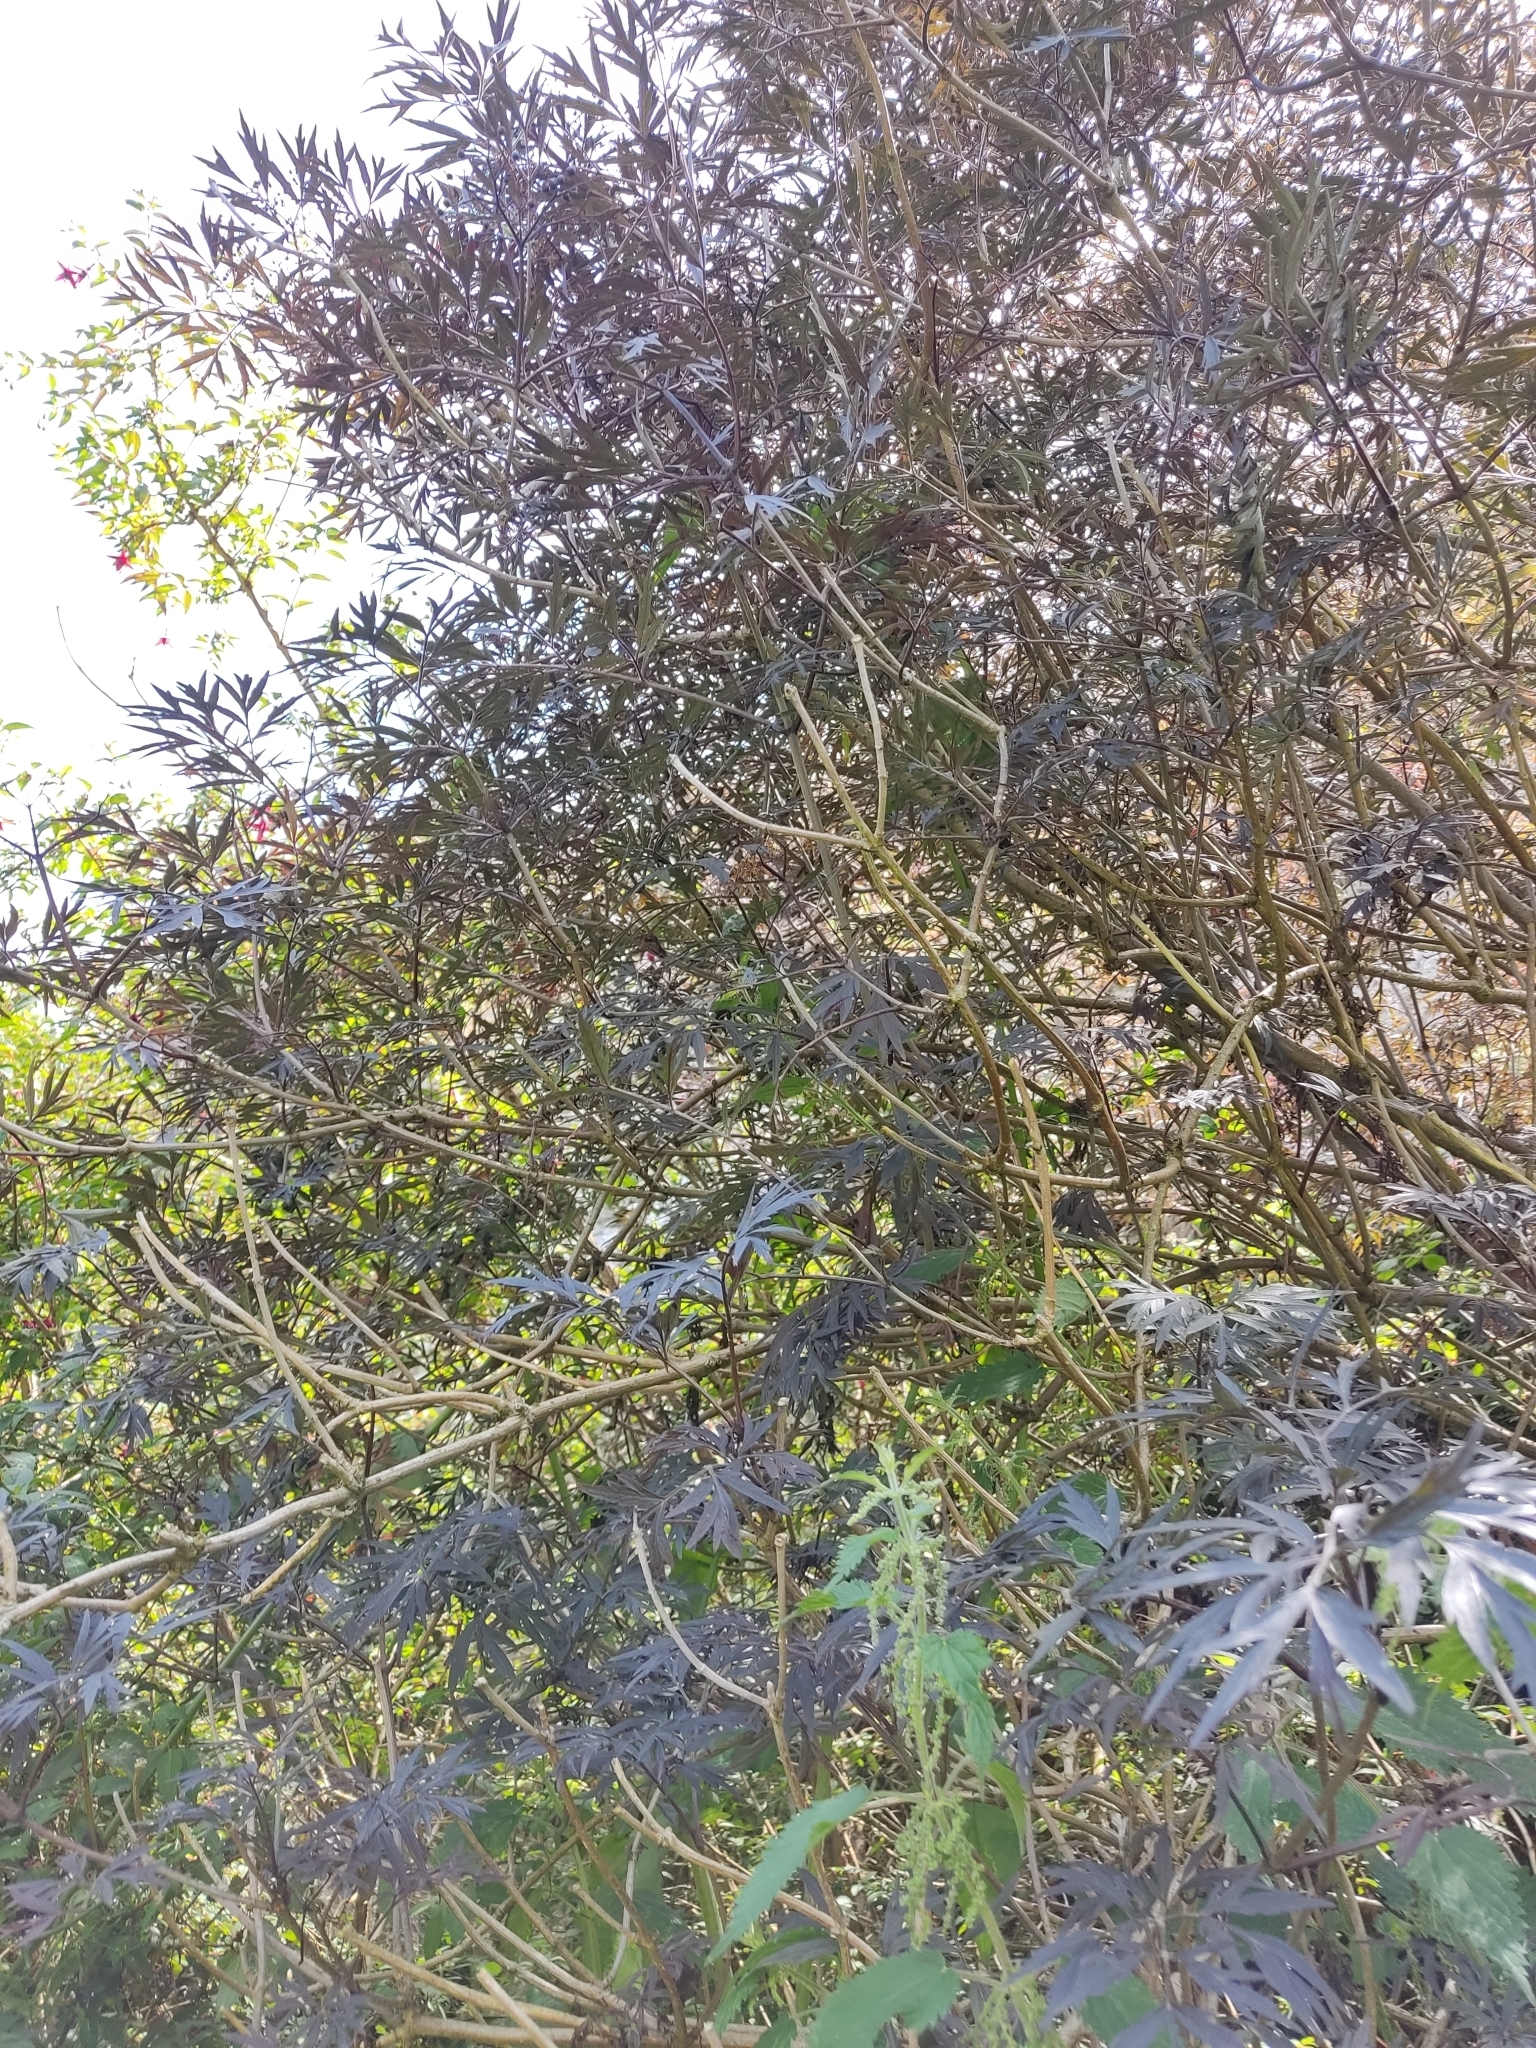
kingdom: Plantae
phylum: Tracheophyta
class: Magnoliopsida
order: Dipsacales
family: Viburnaceae
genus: Sambucus
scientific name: Sambucus nigra
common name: Elder
